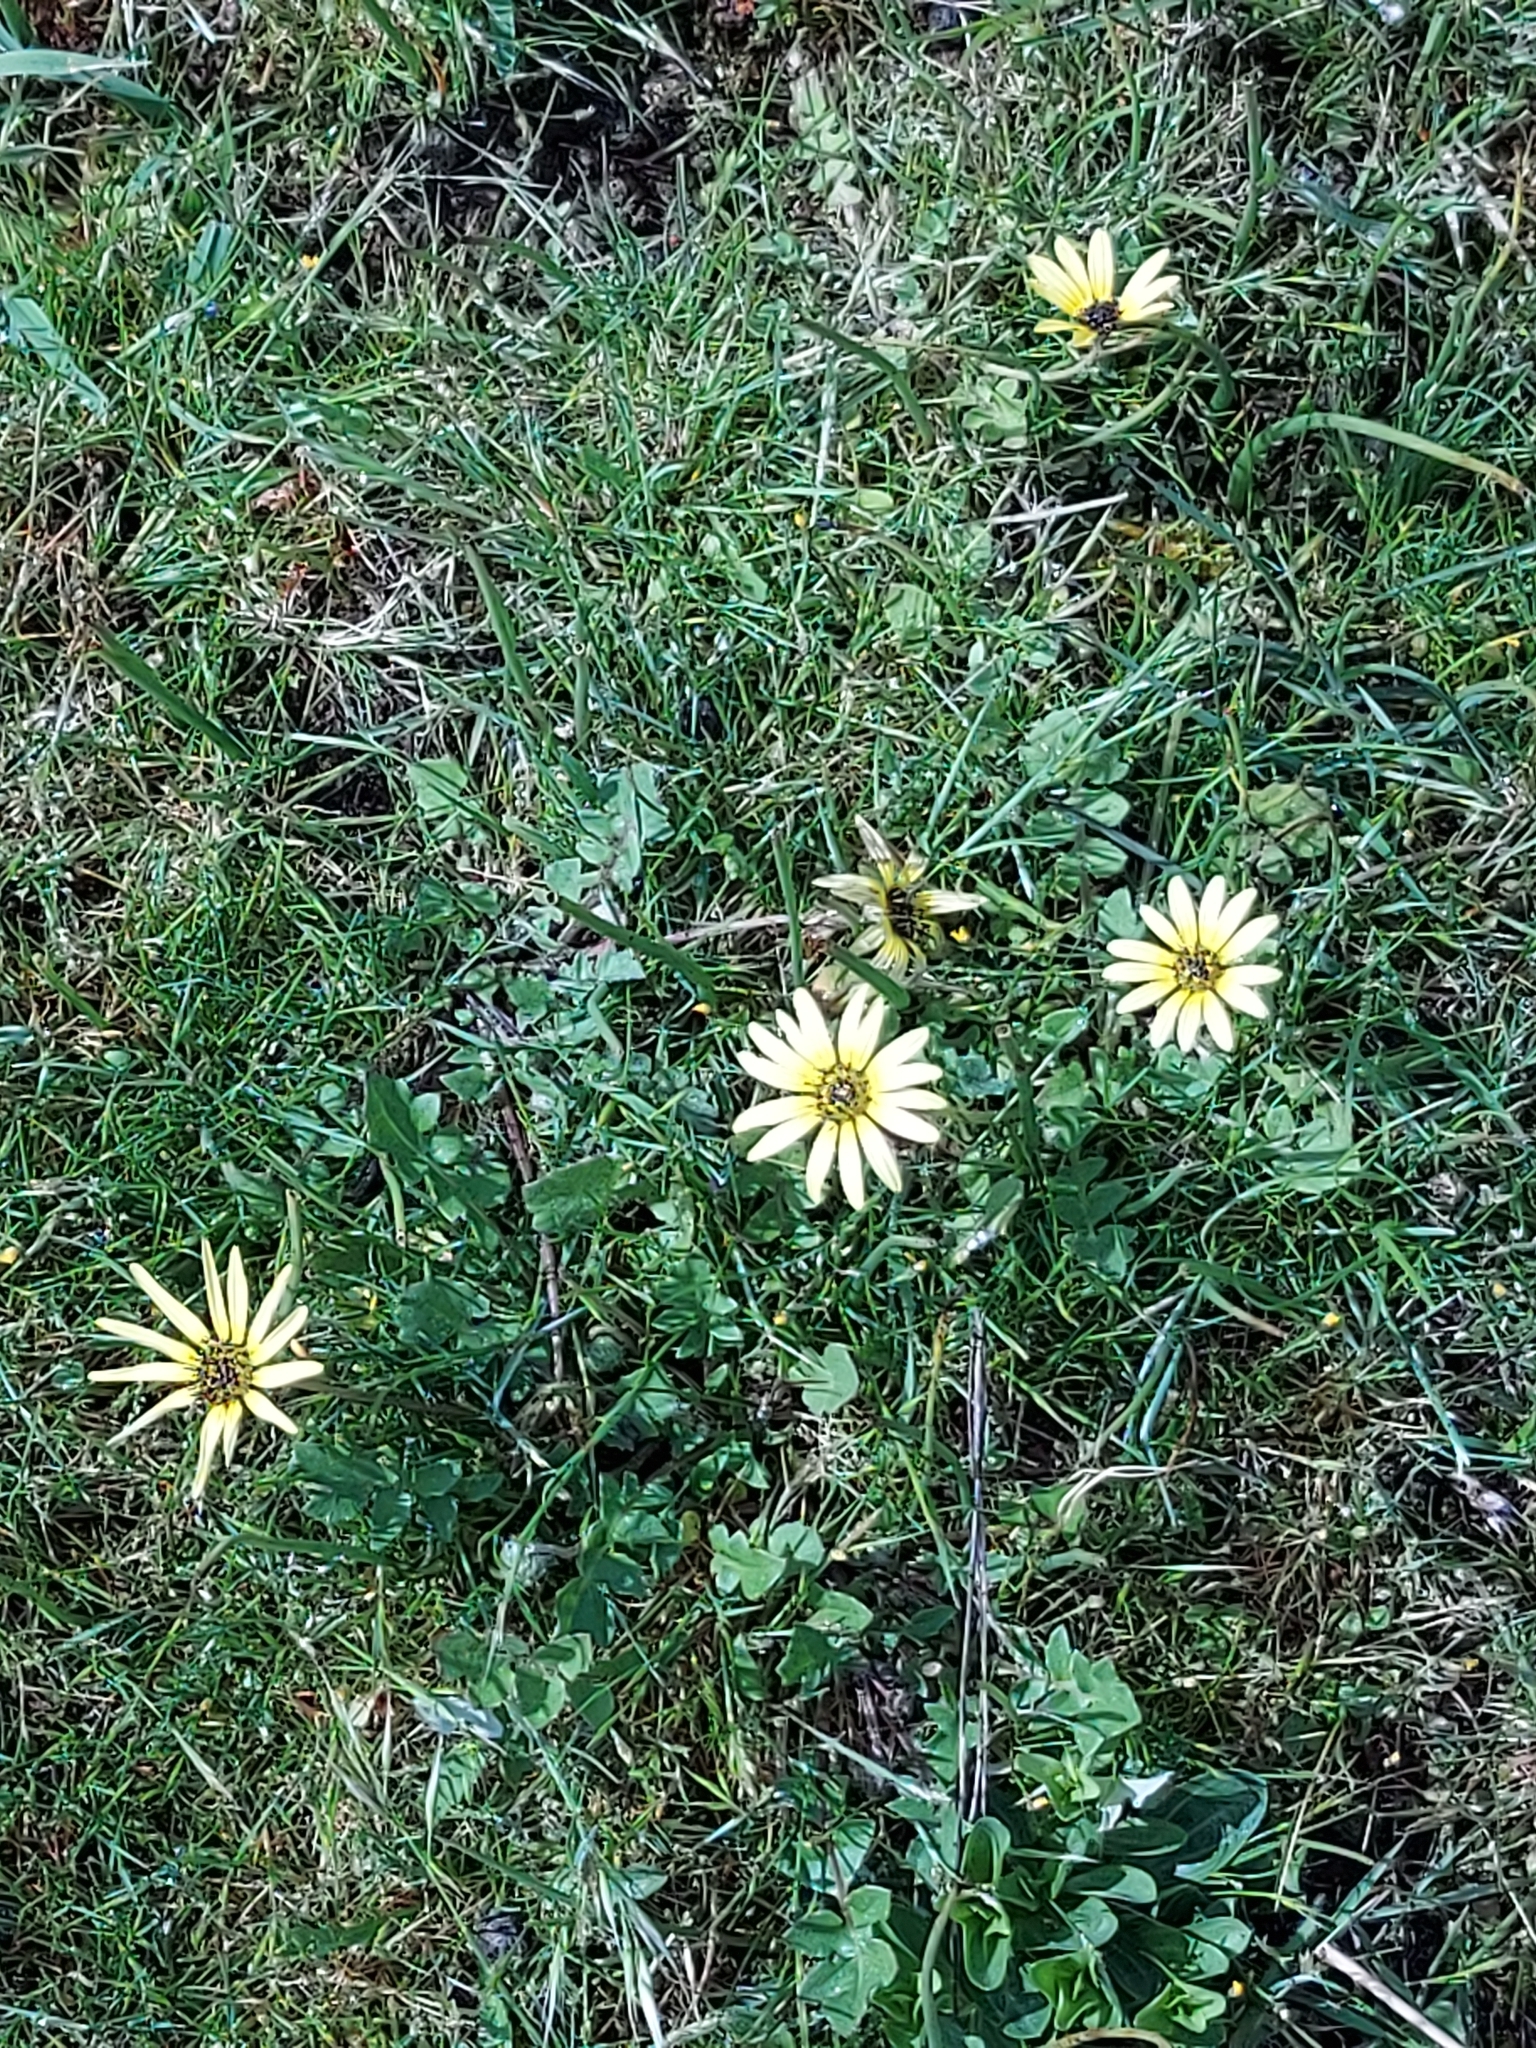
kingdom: Plantae
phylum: Tracheophyta
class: Magnoliopsida
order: Asterales
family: Asteraceae
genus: Arctotheca
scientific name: Arctotheca calendula
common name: Capeweed
